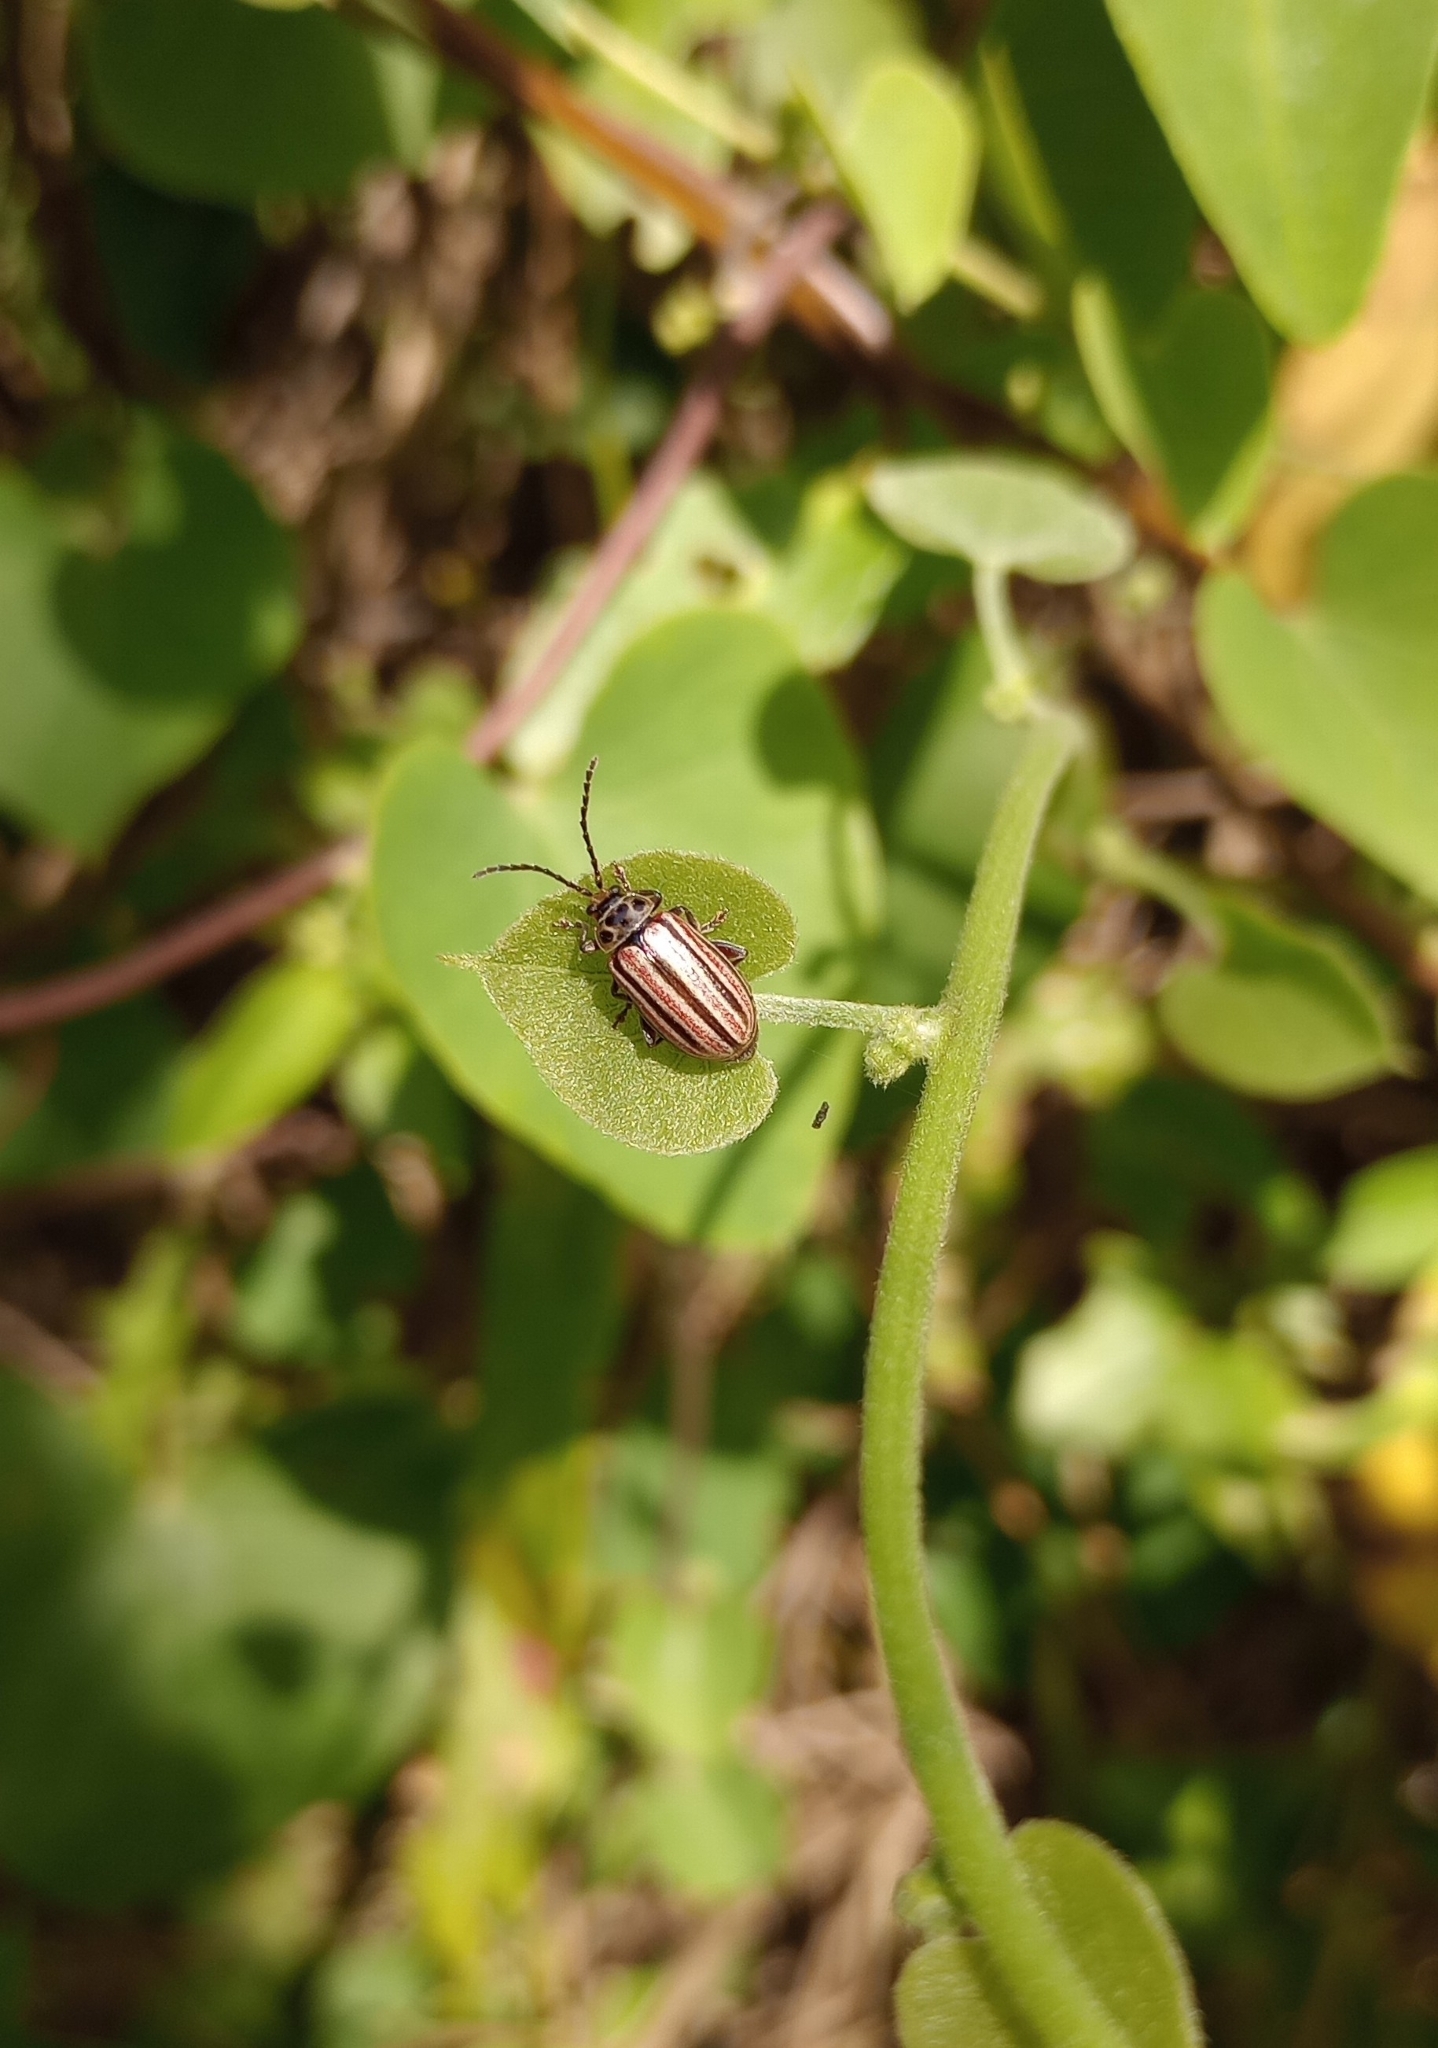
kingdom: Animalia
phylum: Arthropoda
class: Insecta
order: Coleoptera
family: Chrysomelidae
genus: Disonycha
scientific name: Disonycha
